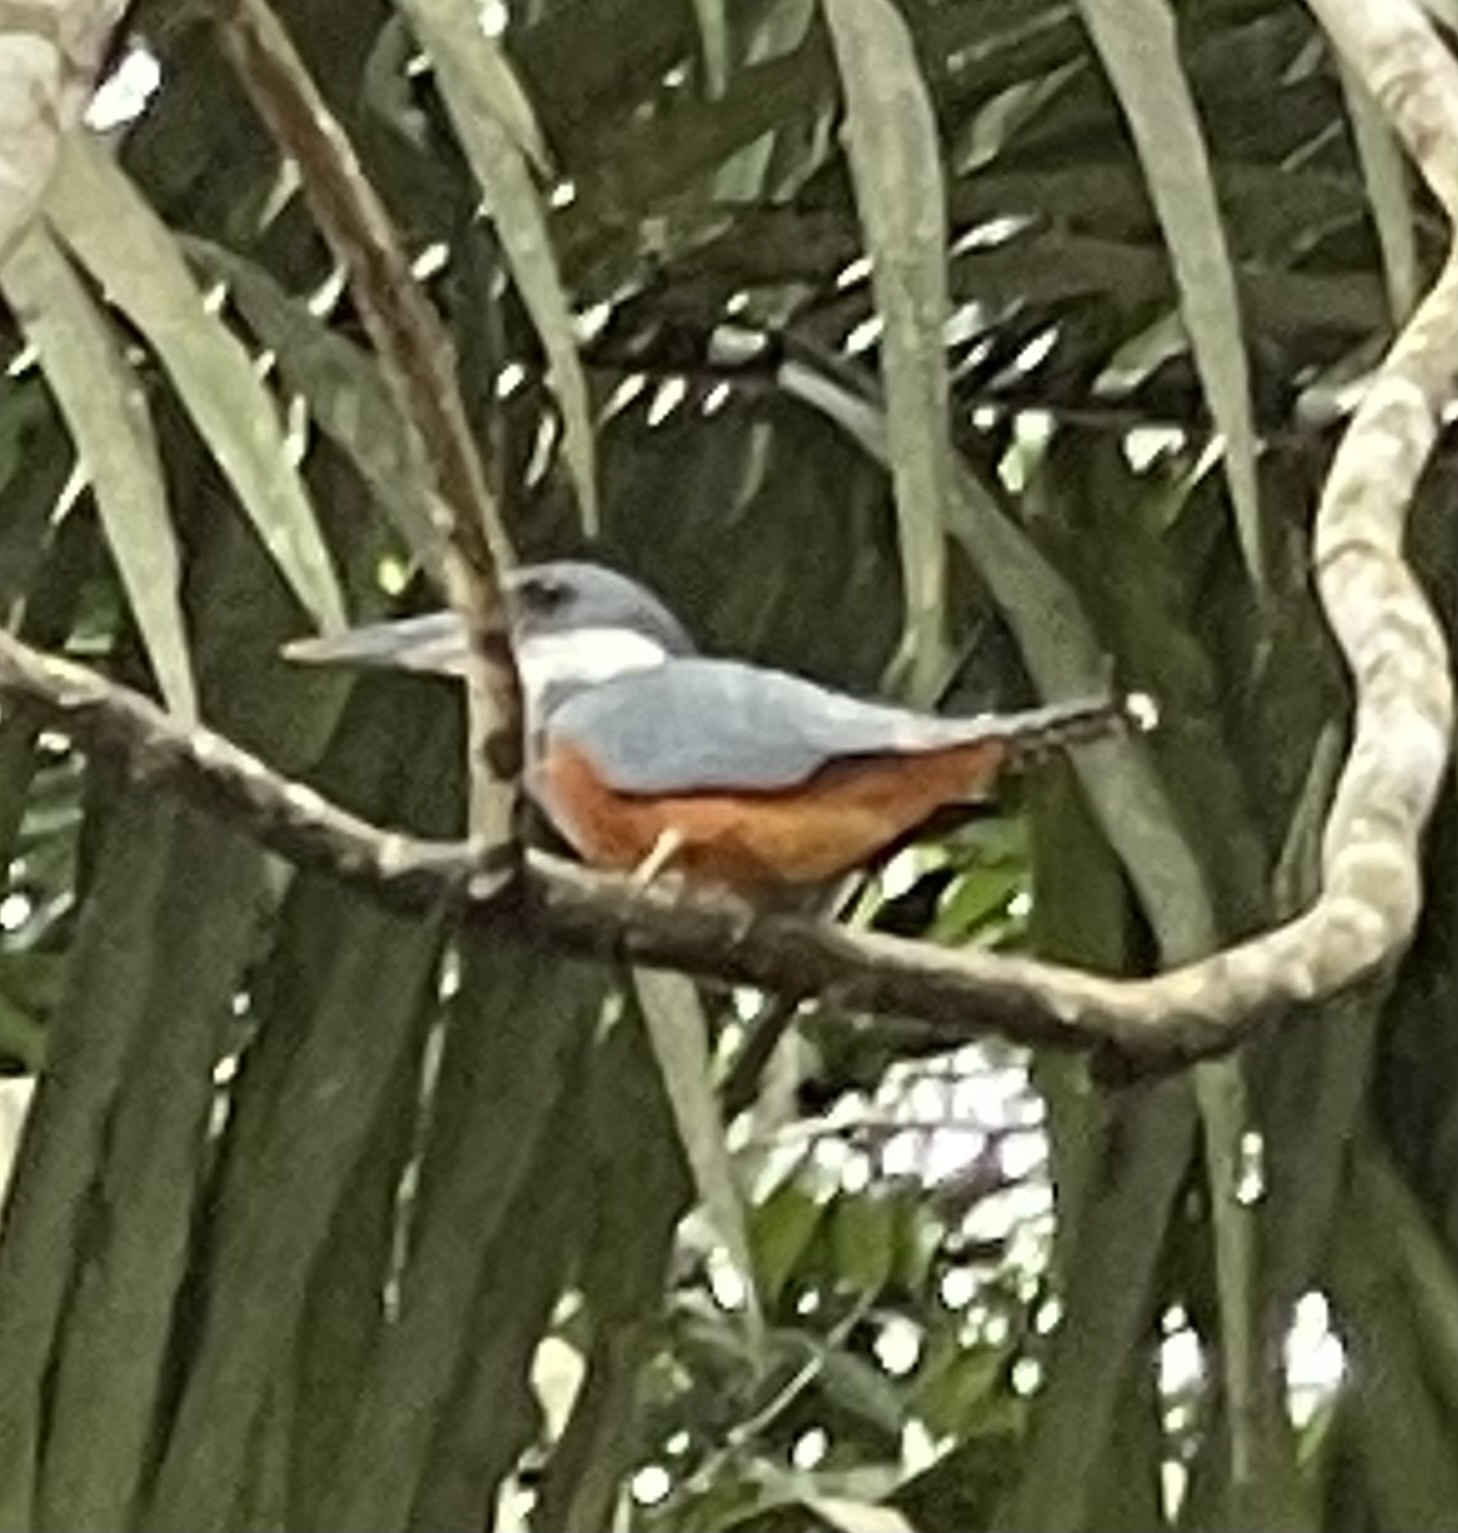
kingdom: Animalia
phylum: Chordata
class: Aves
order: Coraciiformes
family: Alcedinidae
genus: Megaceryle
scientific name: Megaceryle torquata
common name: Ringed kingfisher
